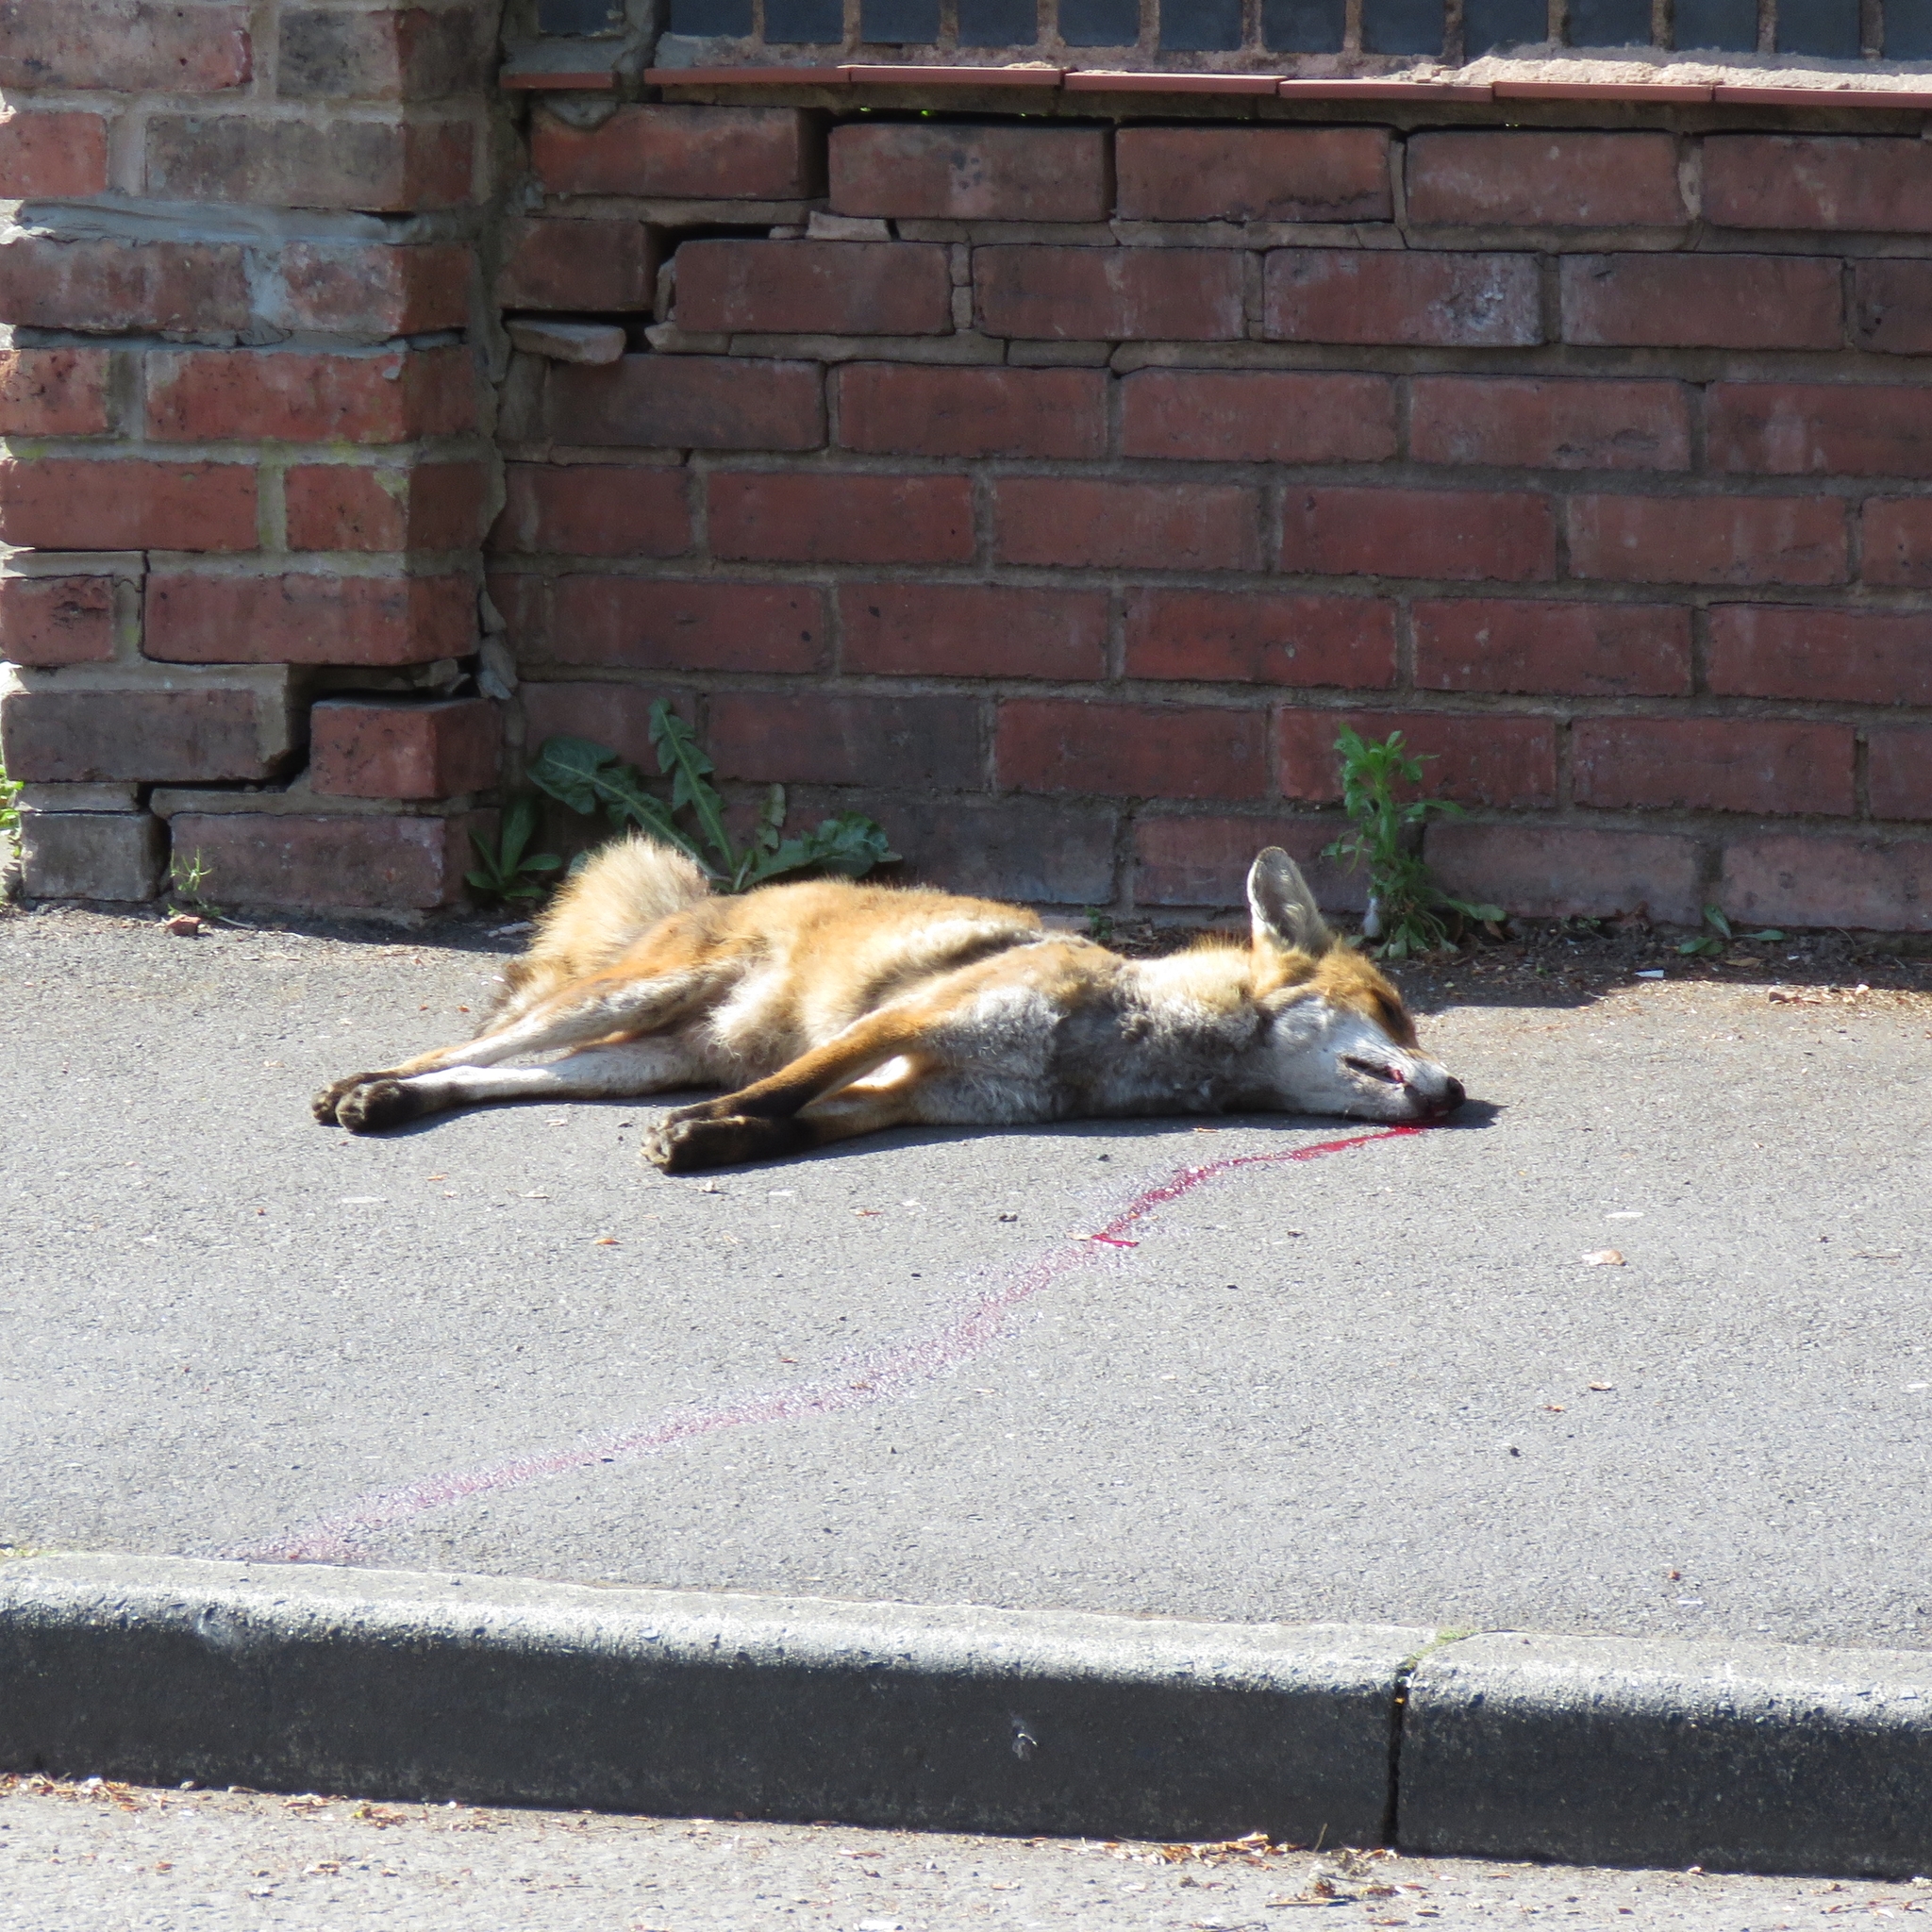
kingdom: Animalia
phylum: Chordata
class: Mammalia
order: Carnivora
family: Canidae
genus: Vulpes
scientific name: Vulpes vulpes
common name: Red fox
